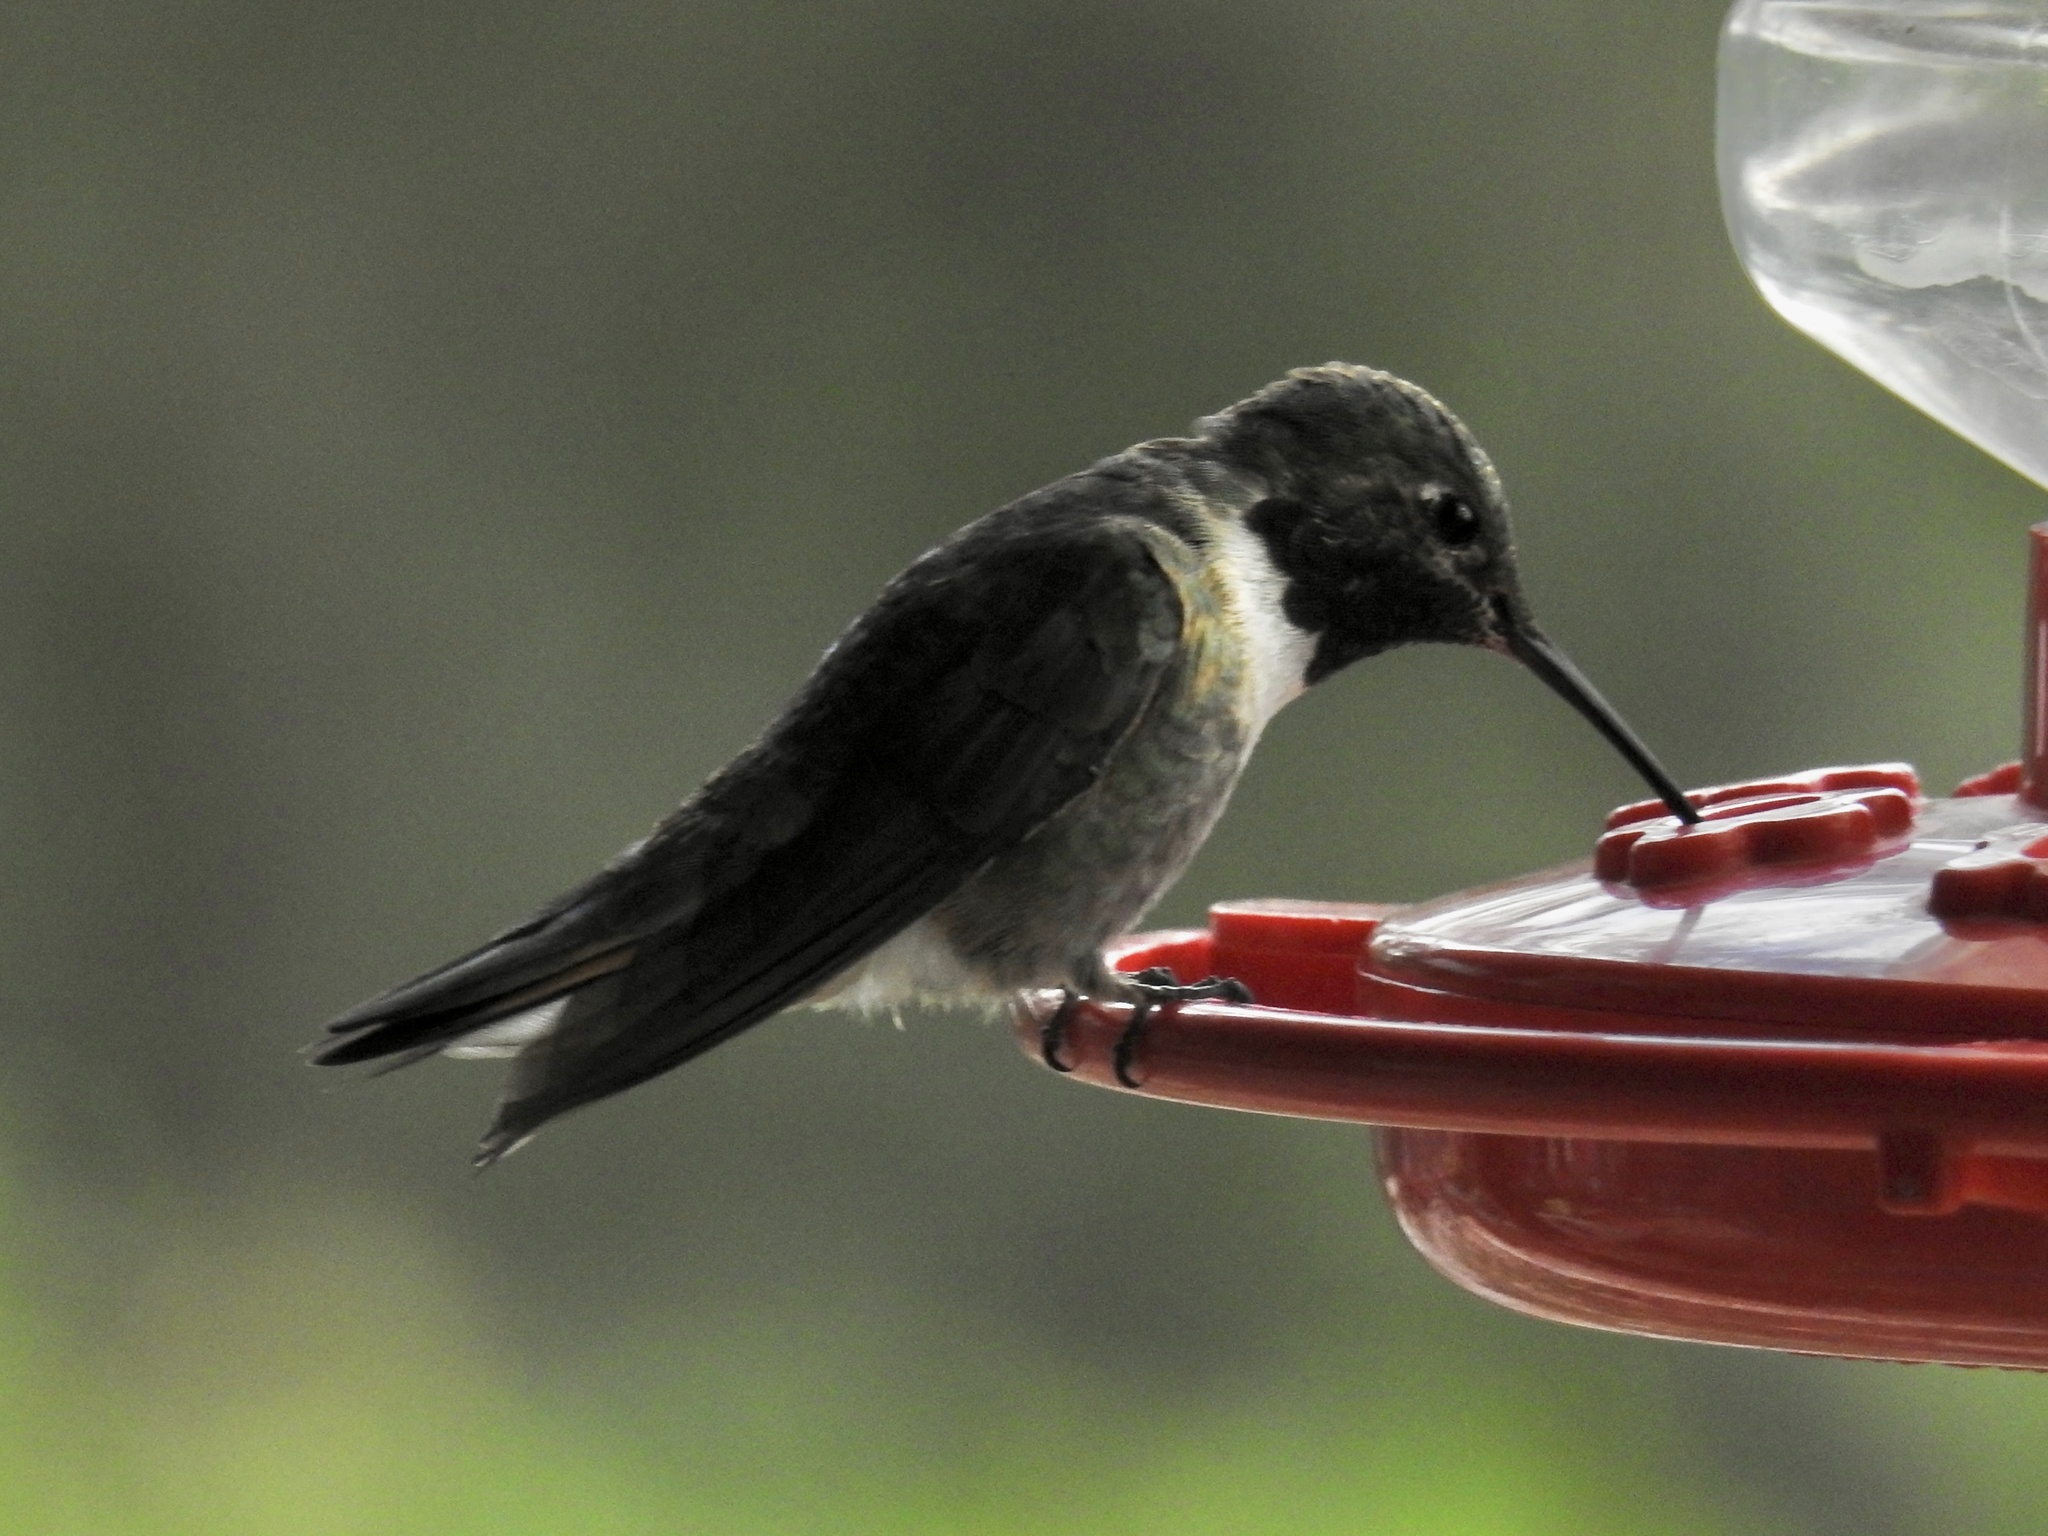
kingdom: Animalia
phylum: Chordata
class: Aves
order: Apodiformes
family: Trochilidae
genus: Archilochus
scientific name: Archilochus alexandri
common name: Black-chinned hummingbird
